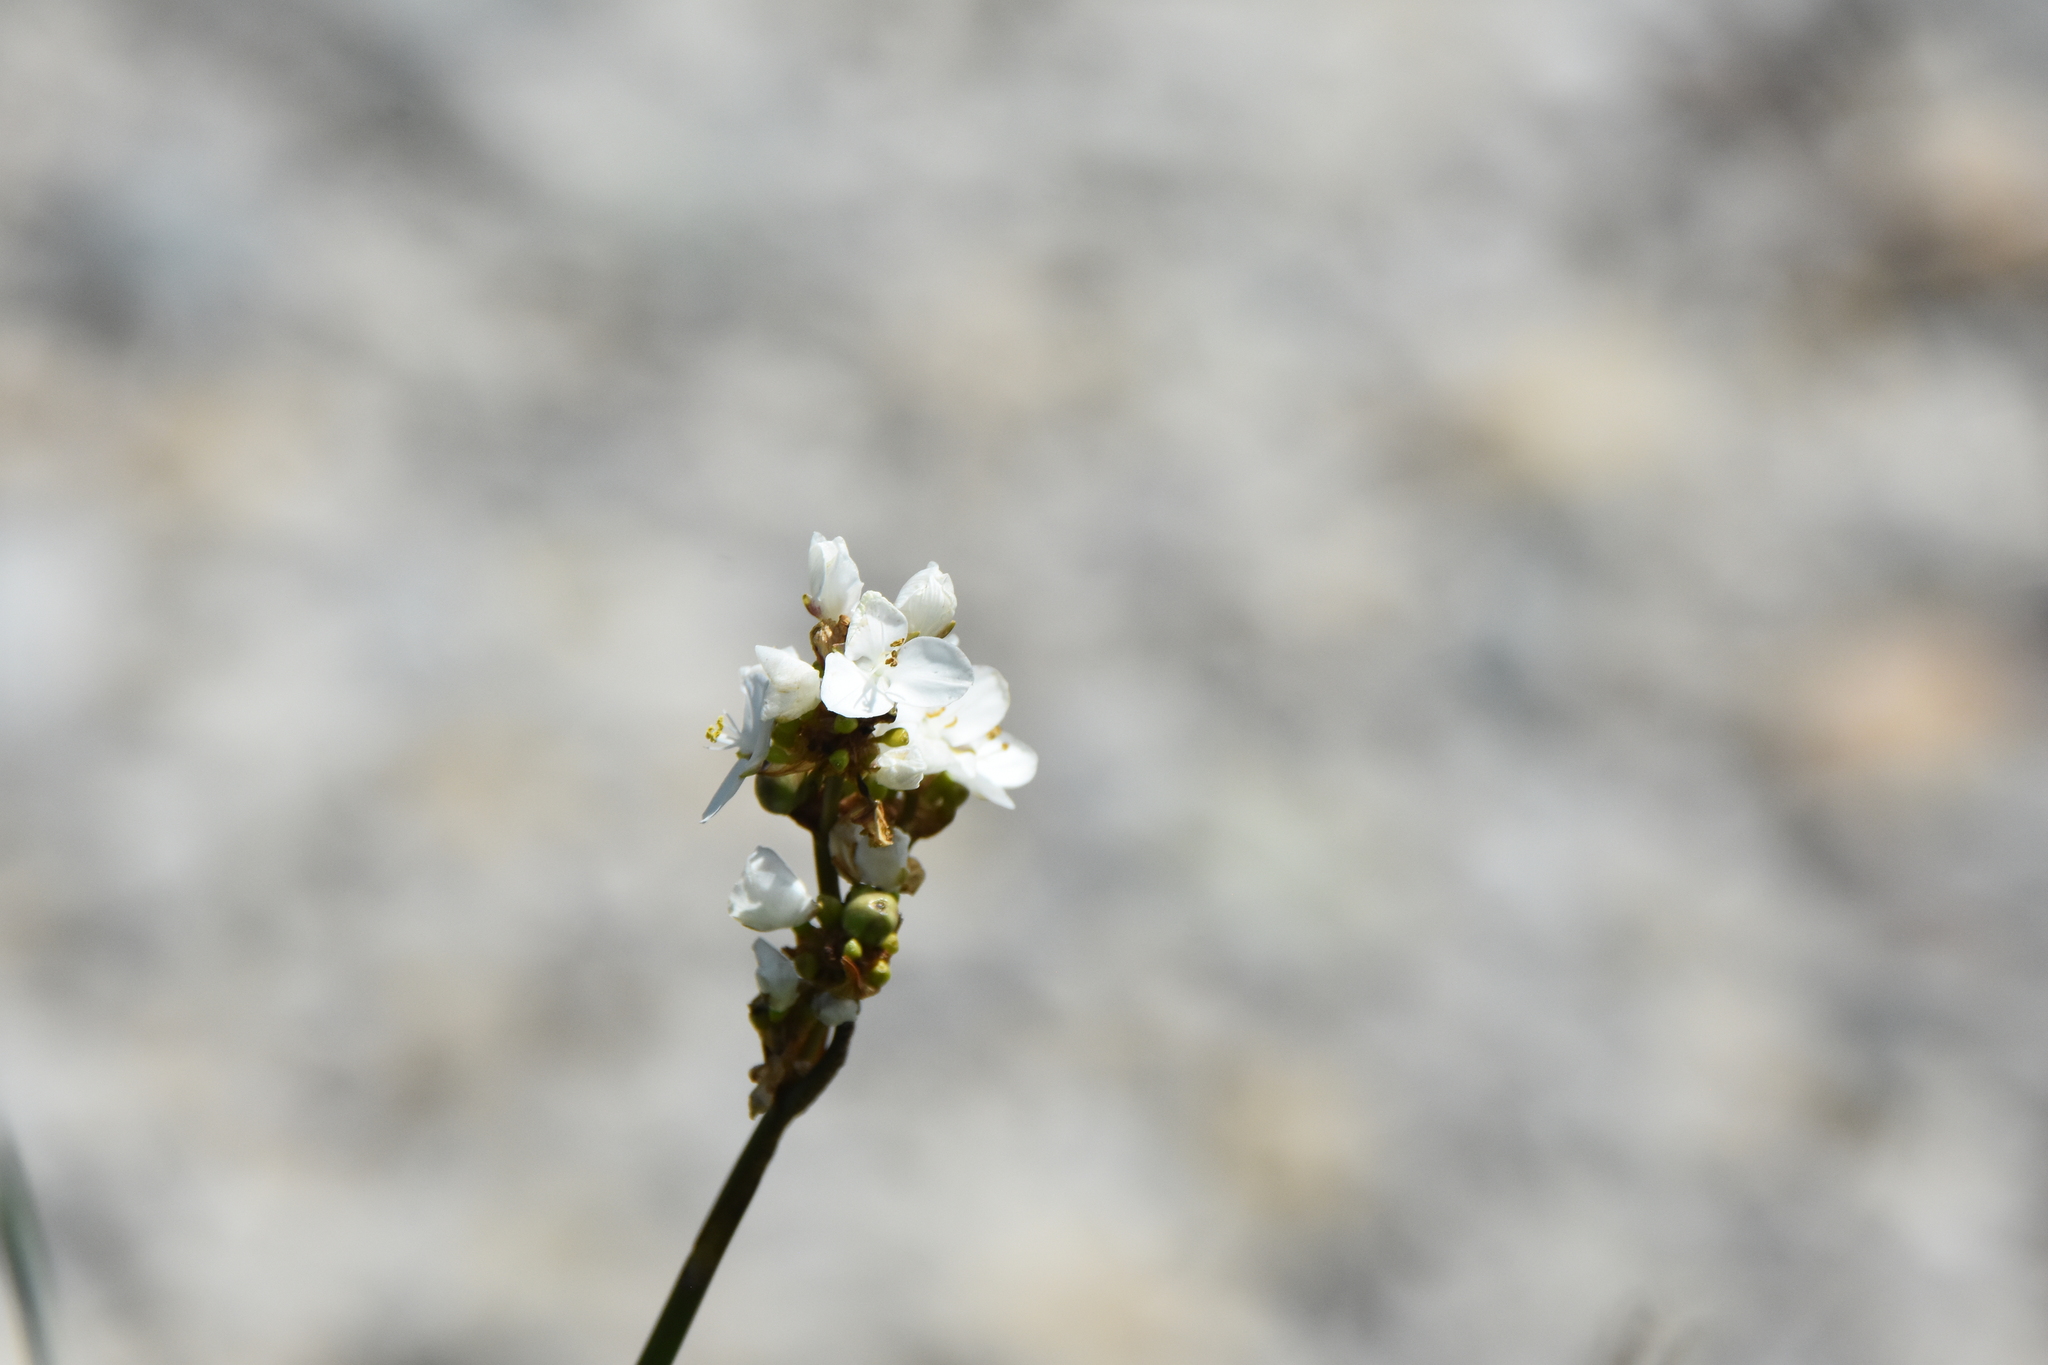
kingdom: Plantae
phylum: Tracheophyta
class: Liliopsida
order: Asparagales
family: Iridaceae
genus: Libertia
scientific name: Libertia chilensis
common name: Satin flower
